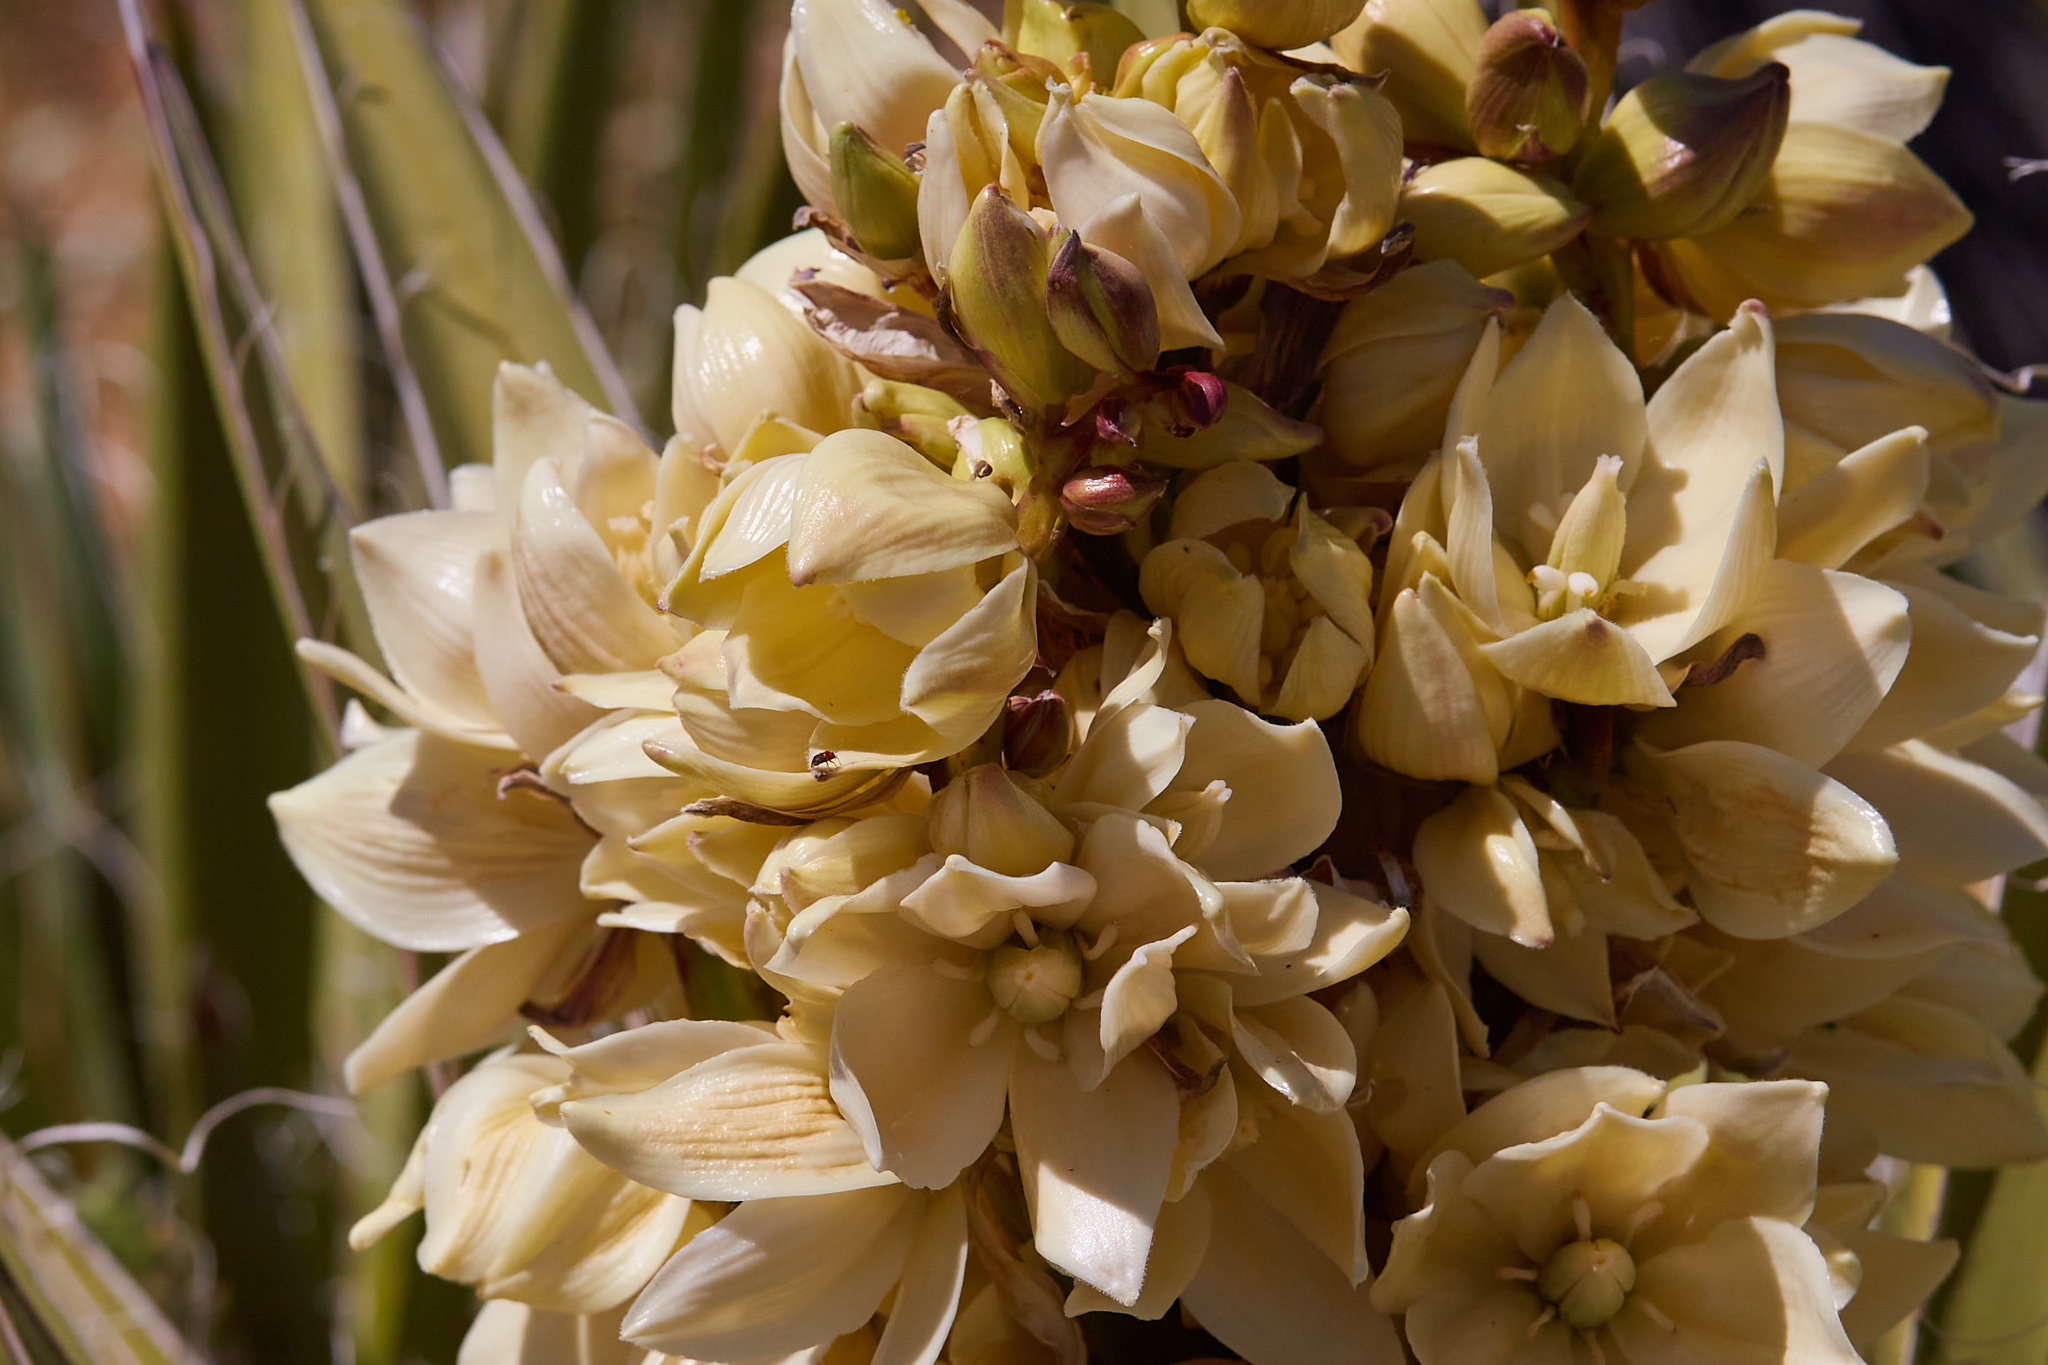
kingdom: Plantae
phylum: Tracheophyta
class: Liliopsida
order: Asparagales
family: Asparagaceae
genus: Yucca
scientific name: Yucca schidigera
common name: Mojave yucca
